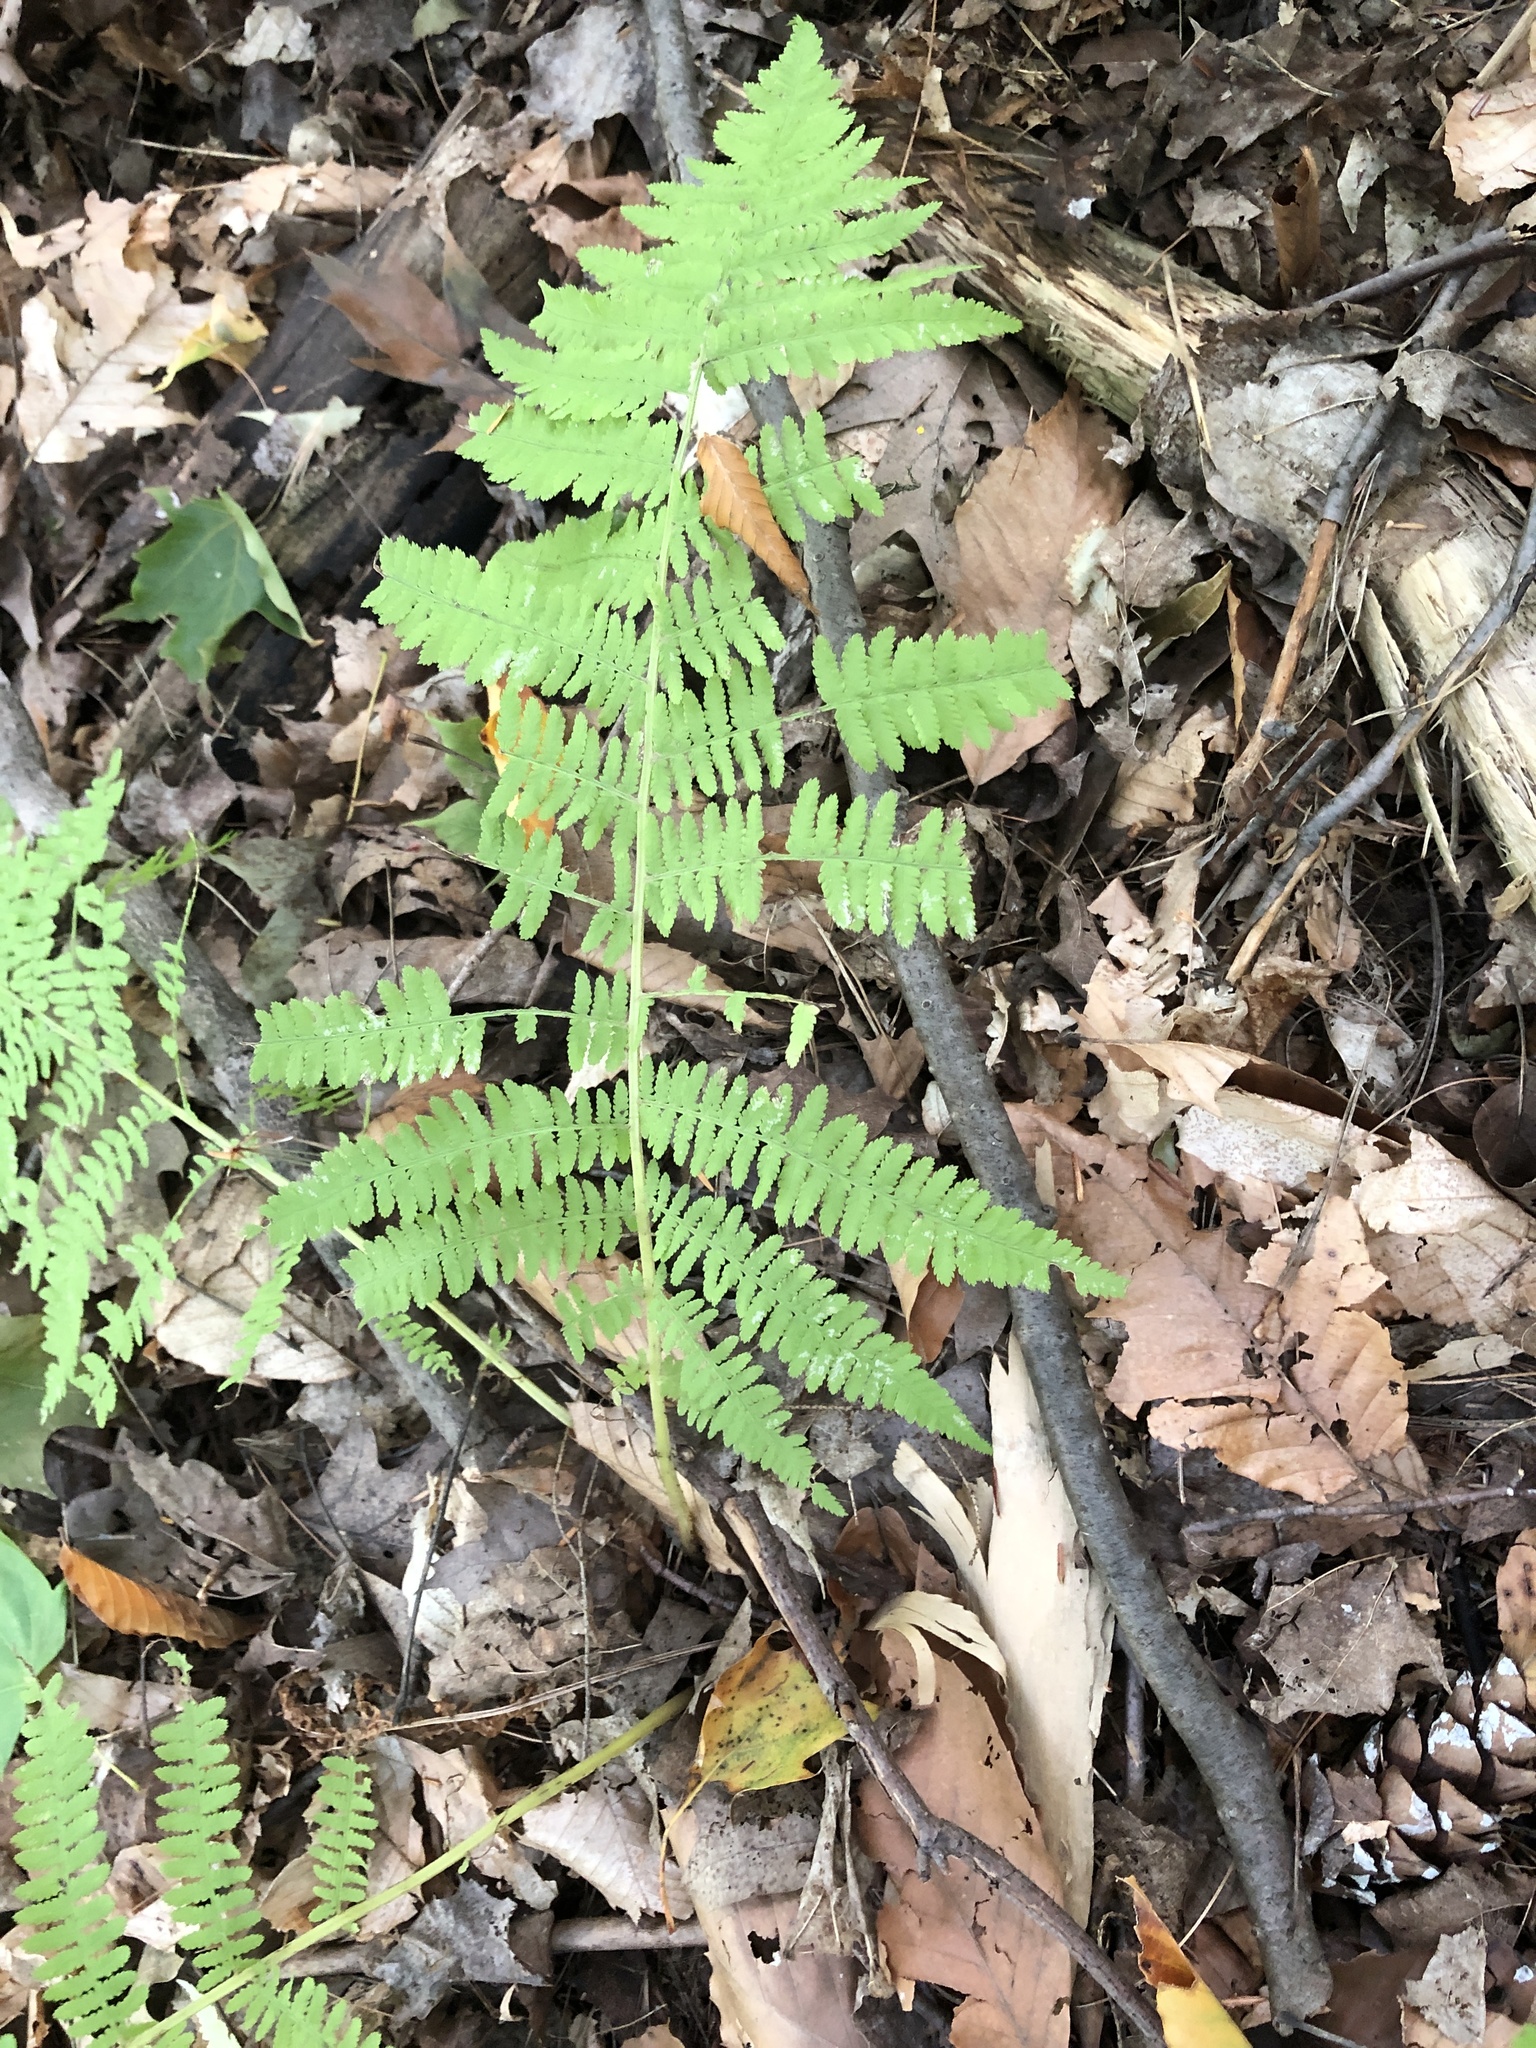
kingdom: Plantae
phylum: Tracheophyta
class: Polypodiopsida
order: Polypodiales
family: Athyriaceae
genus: Athyrium
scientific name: Athyrium angustum
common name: Northern lady fern
